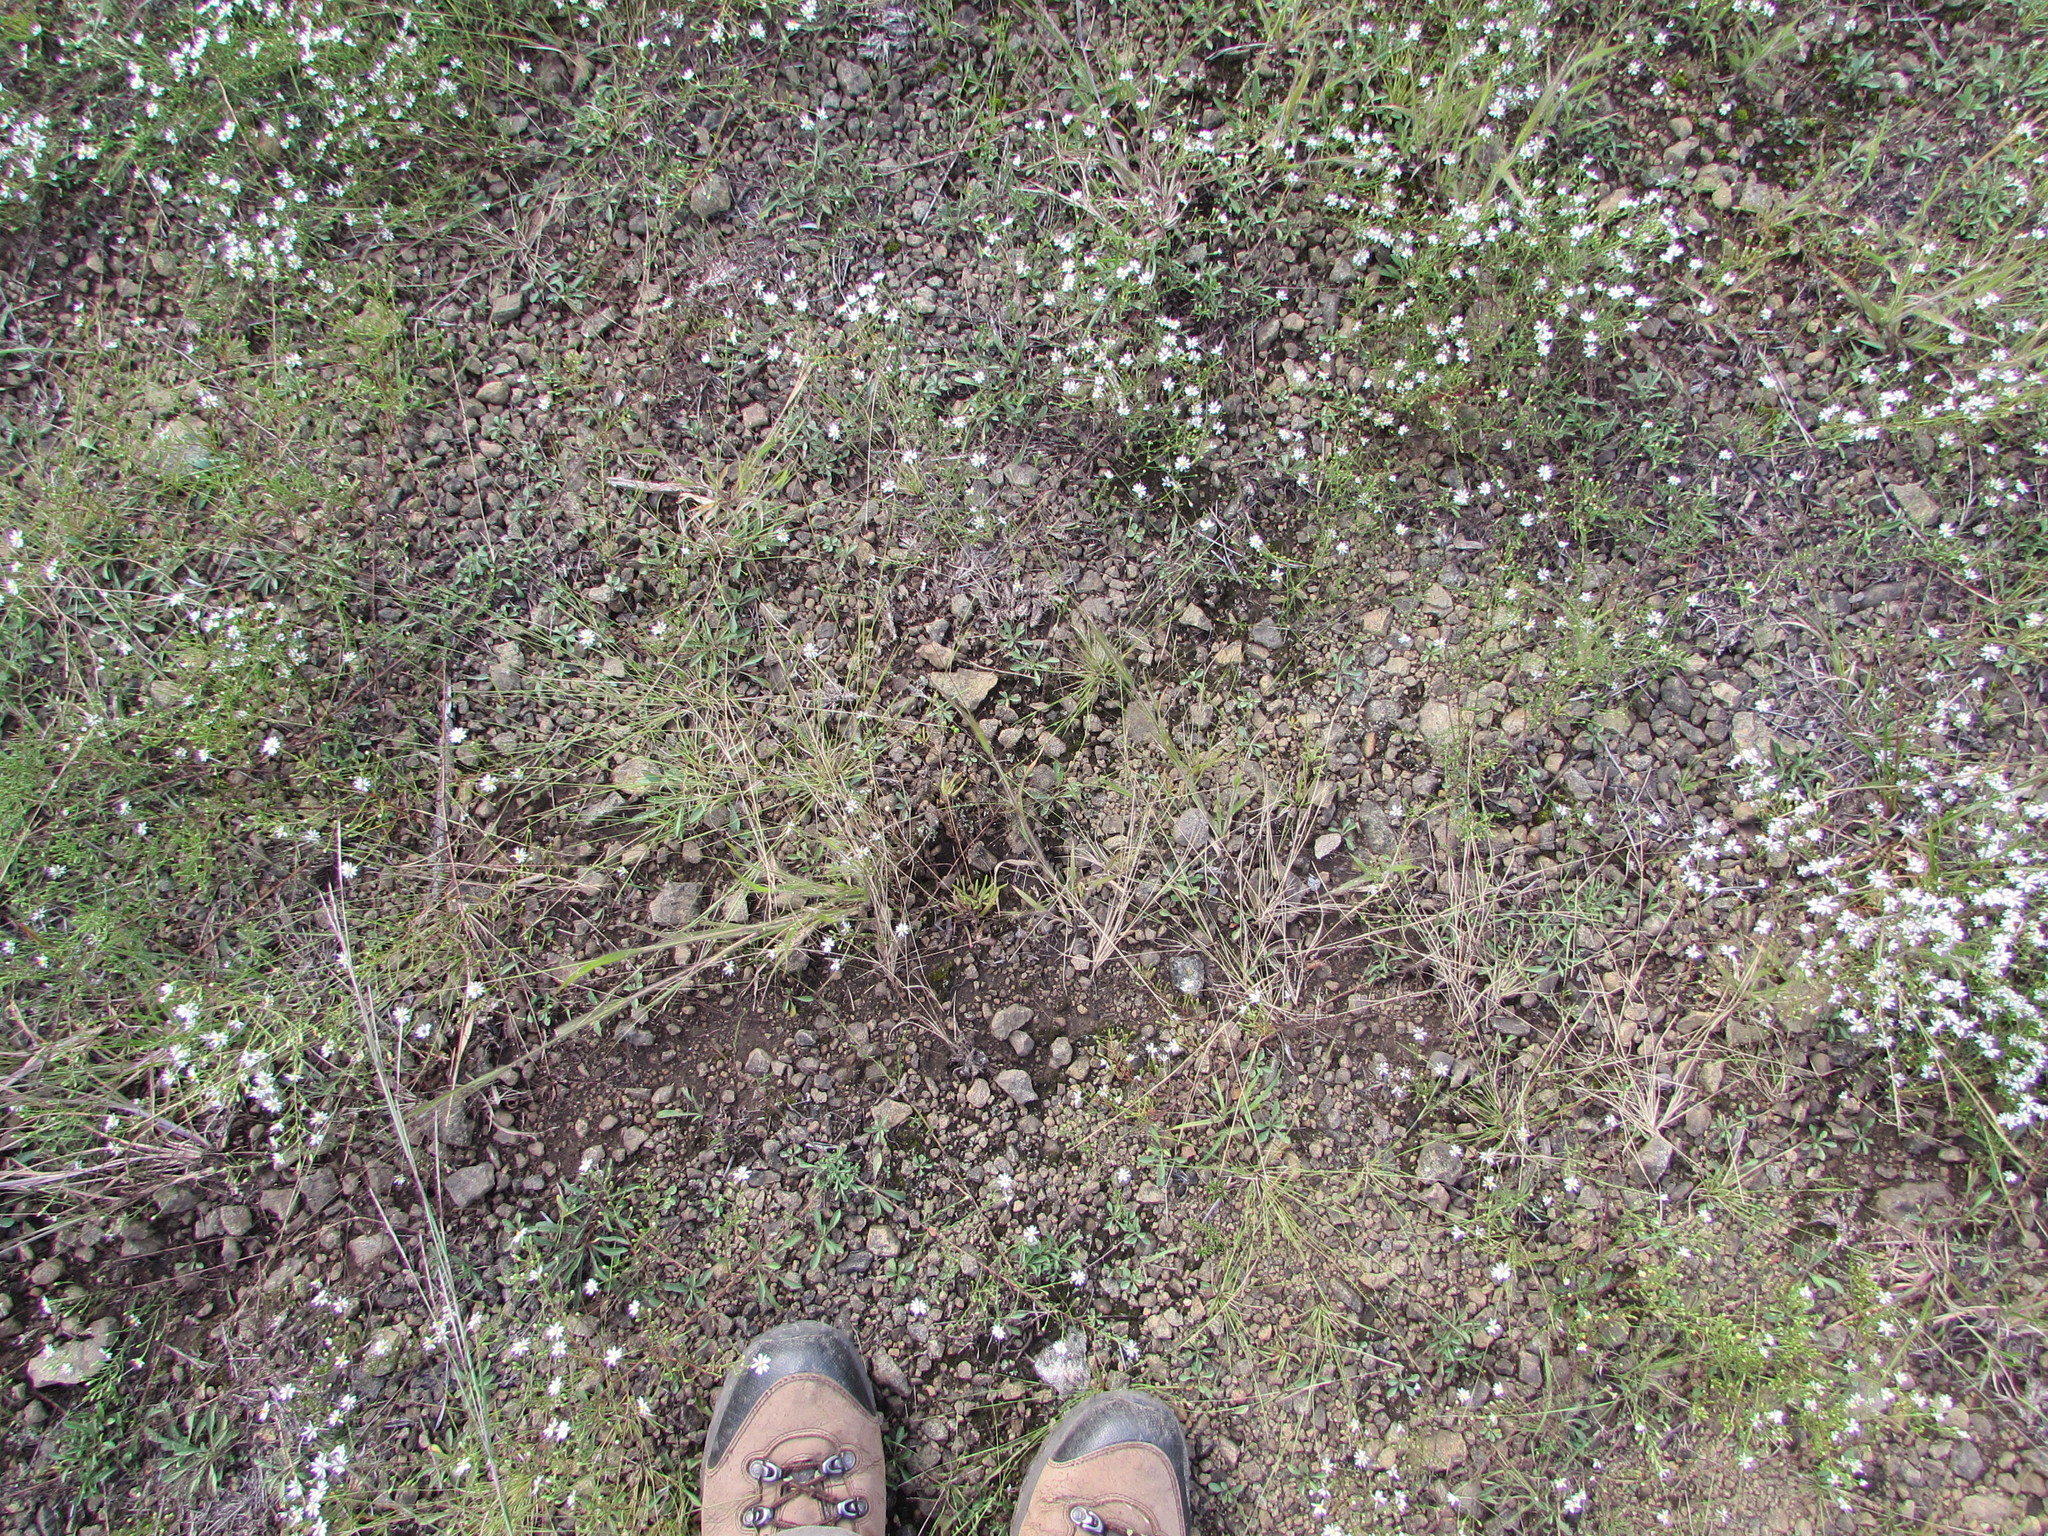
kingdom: Plantae
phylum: Tracheophyta
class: Magnoliopsida
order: Caryophyllales
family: Montiaceae
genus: Phemeranthus
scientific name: Phemeranthus teretifolius
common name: Quill fameflower
